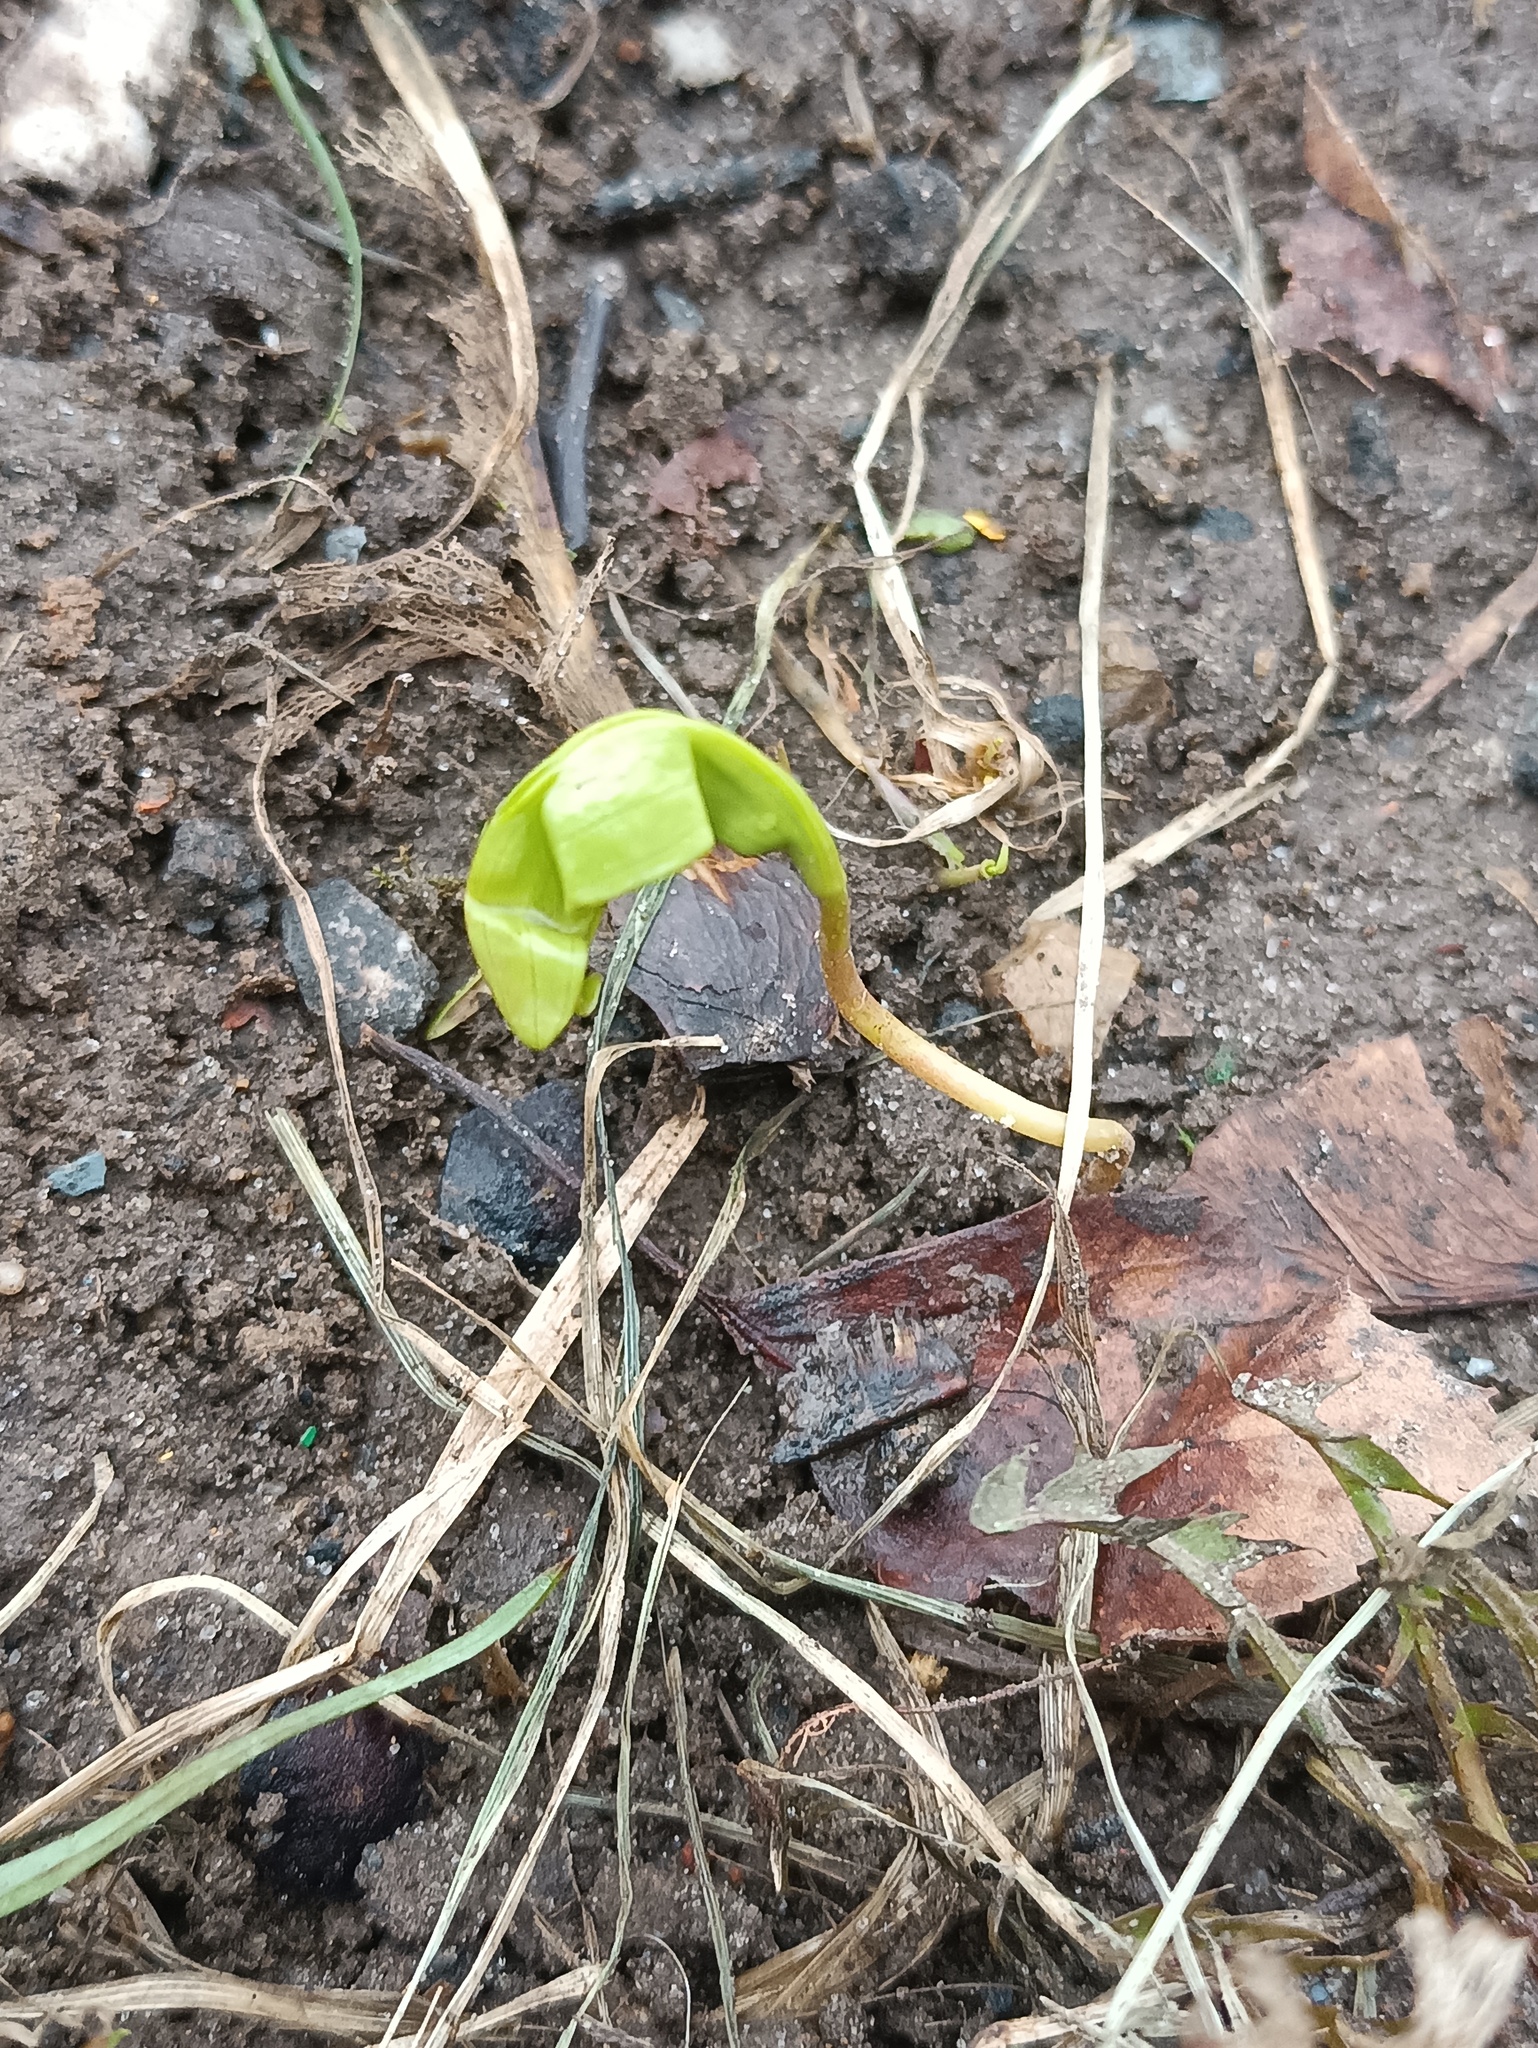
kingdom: Plantae
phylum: Tracheophyta
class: Magnoliopsida
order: Sapindales
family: Sapindaceae
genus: Acer
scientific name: Acer platanoides
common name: Norway maple
